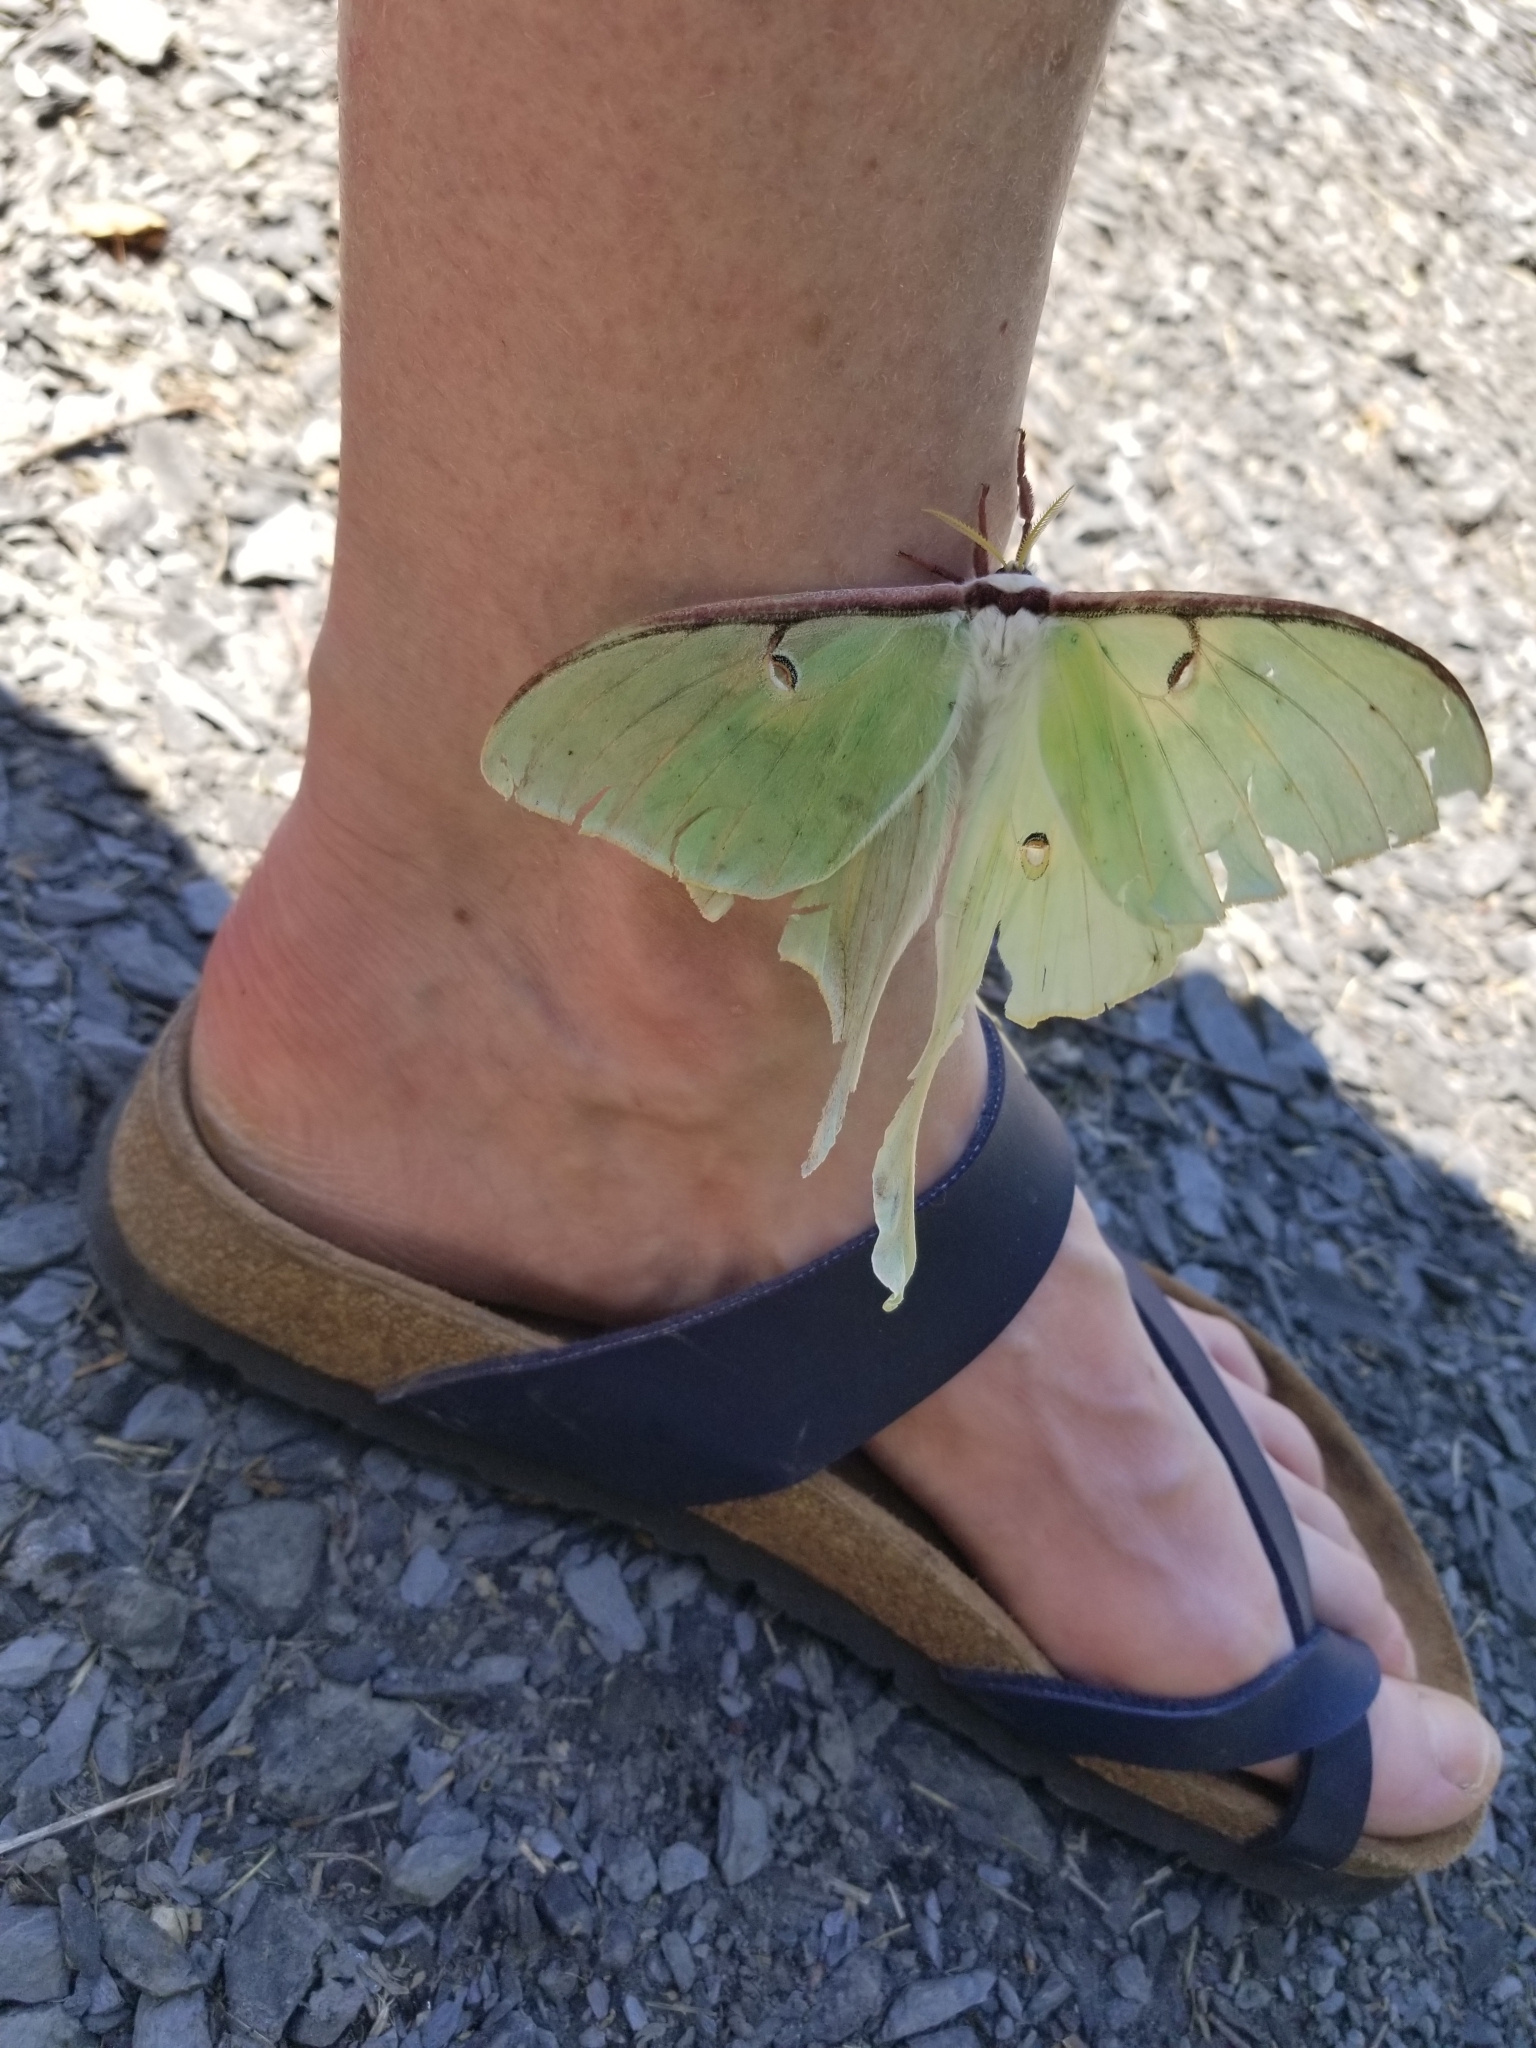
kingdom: Animalia
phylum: Arthropoda
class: Insecta
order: Lepidoptera
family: Saturniidae
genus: Actias
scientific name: Actias luna
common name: Luna moth
